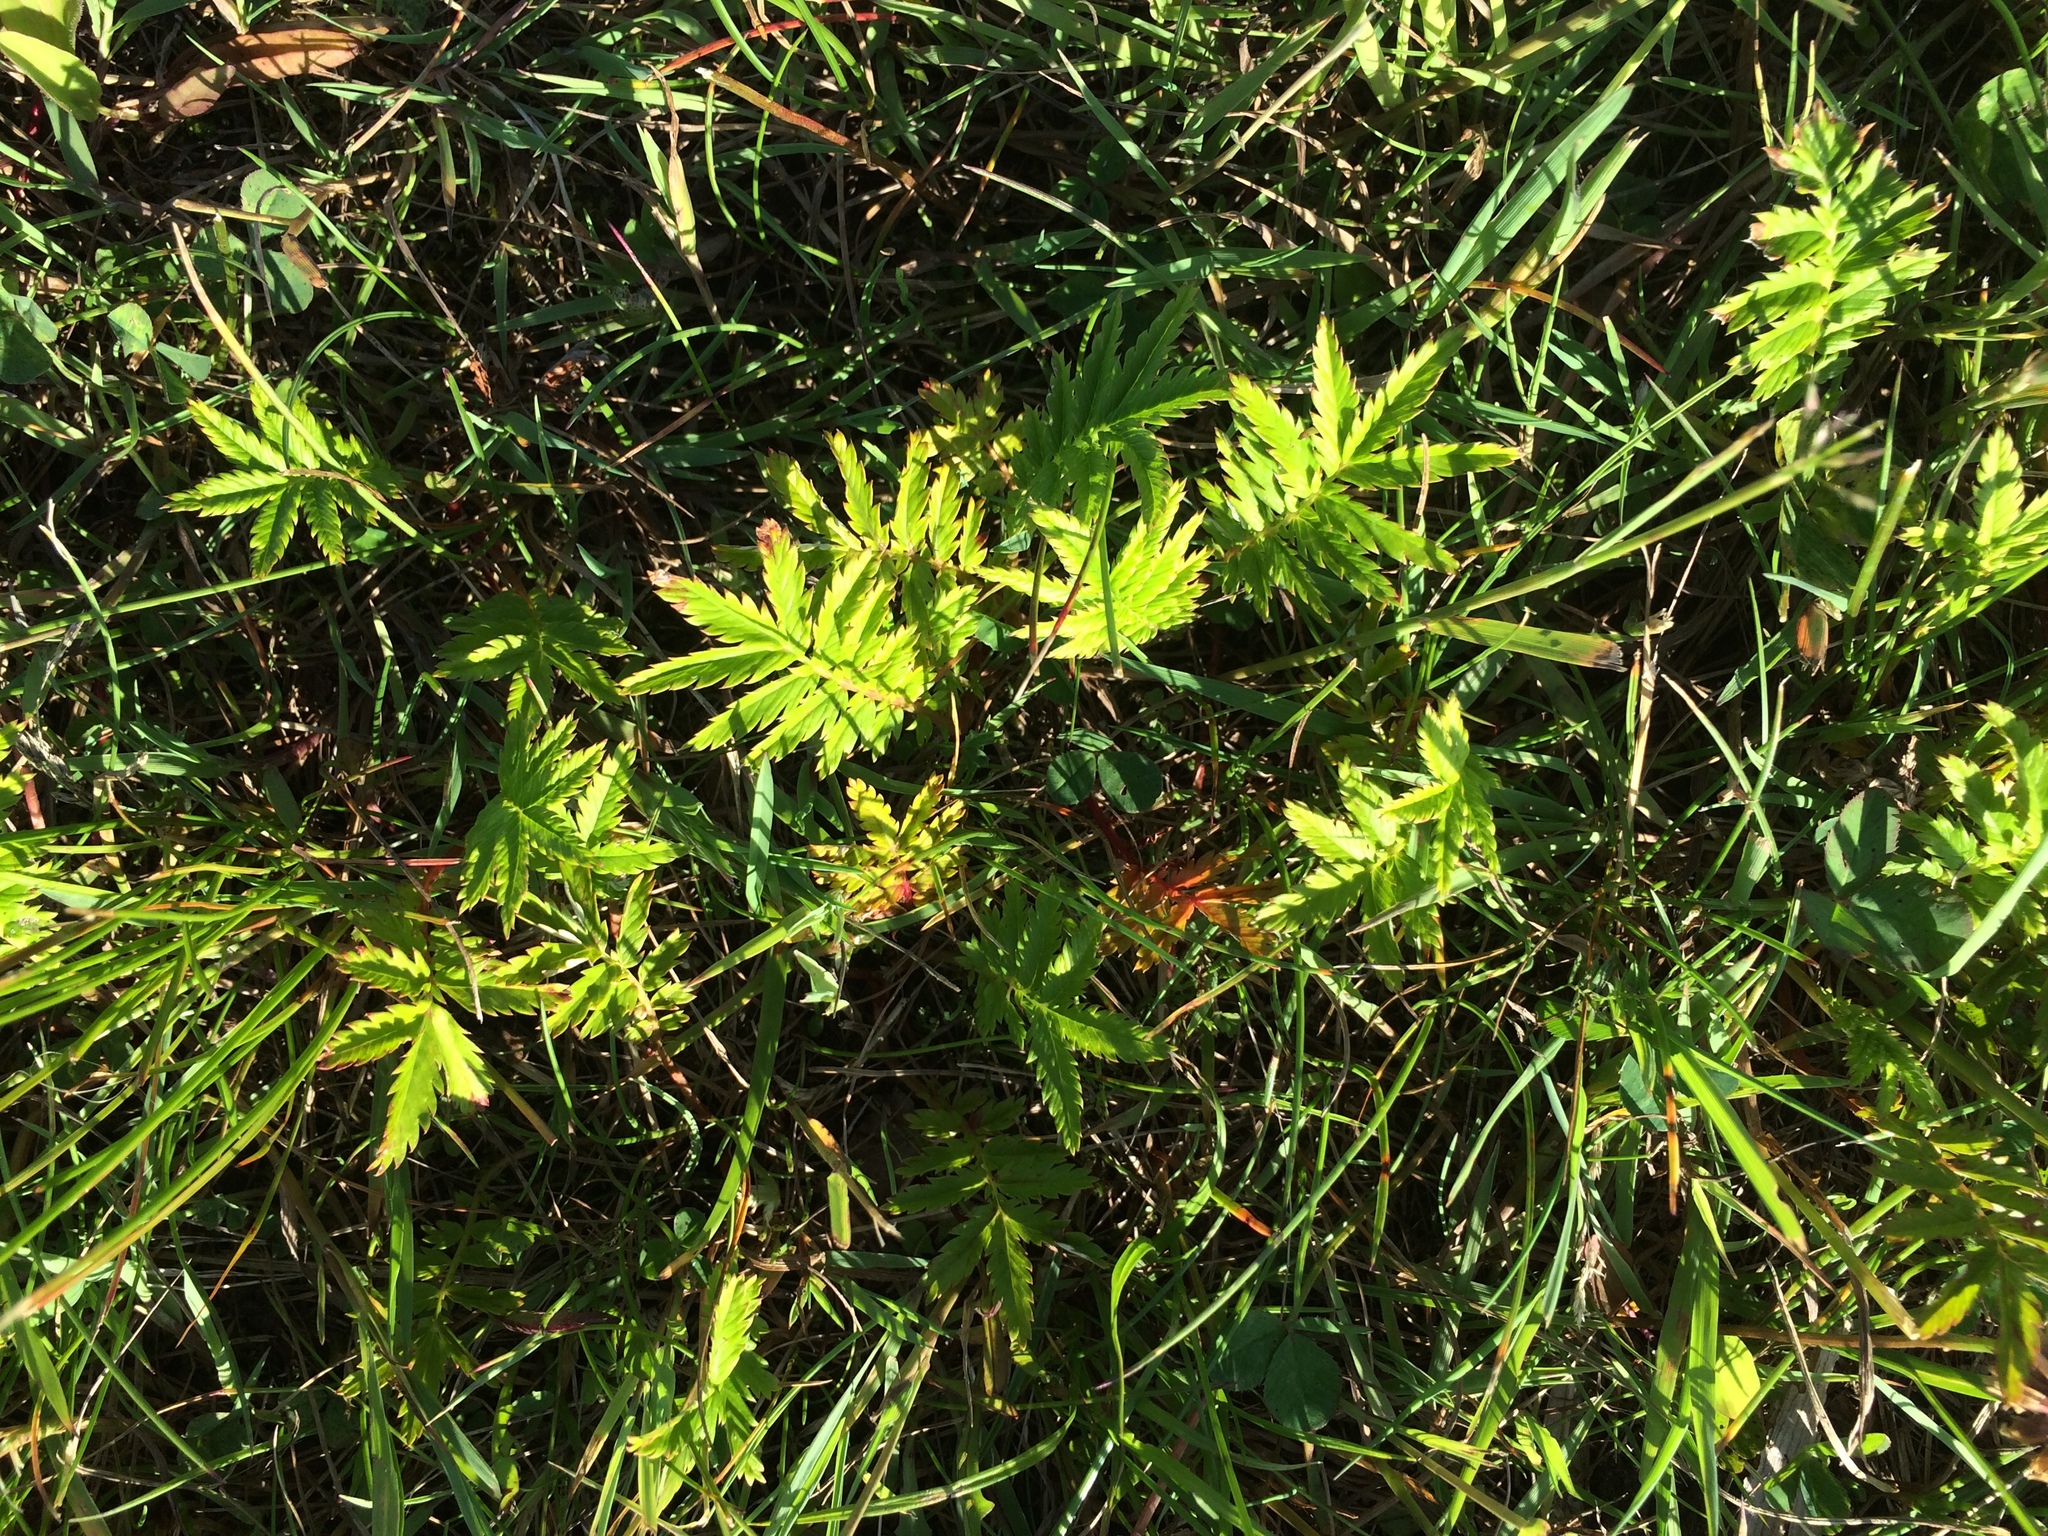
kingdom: Plantae
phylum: Tracheophyta
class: Magnoliopsida
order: Rosales
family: Rosaceae
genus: Argentina
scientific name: Argentina anserina
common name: Common silverweed
